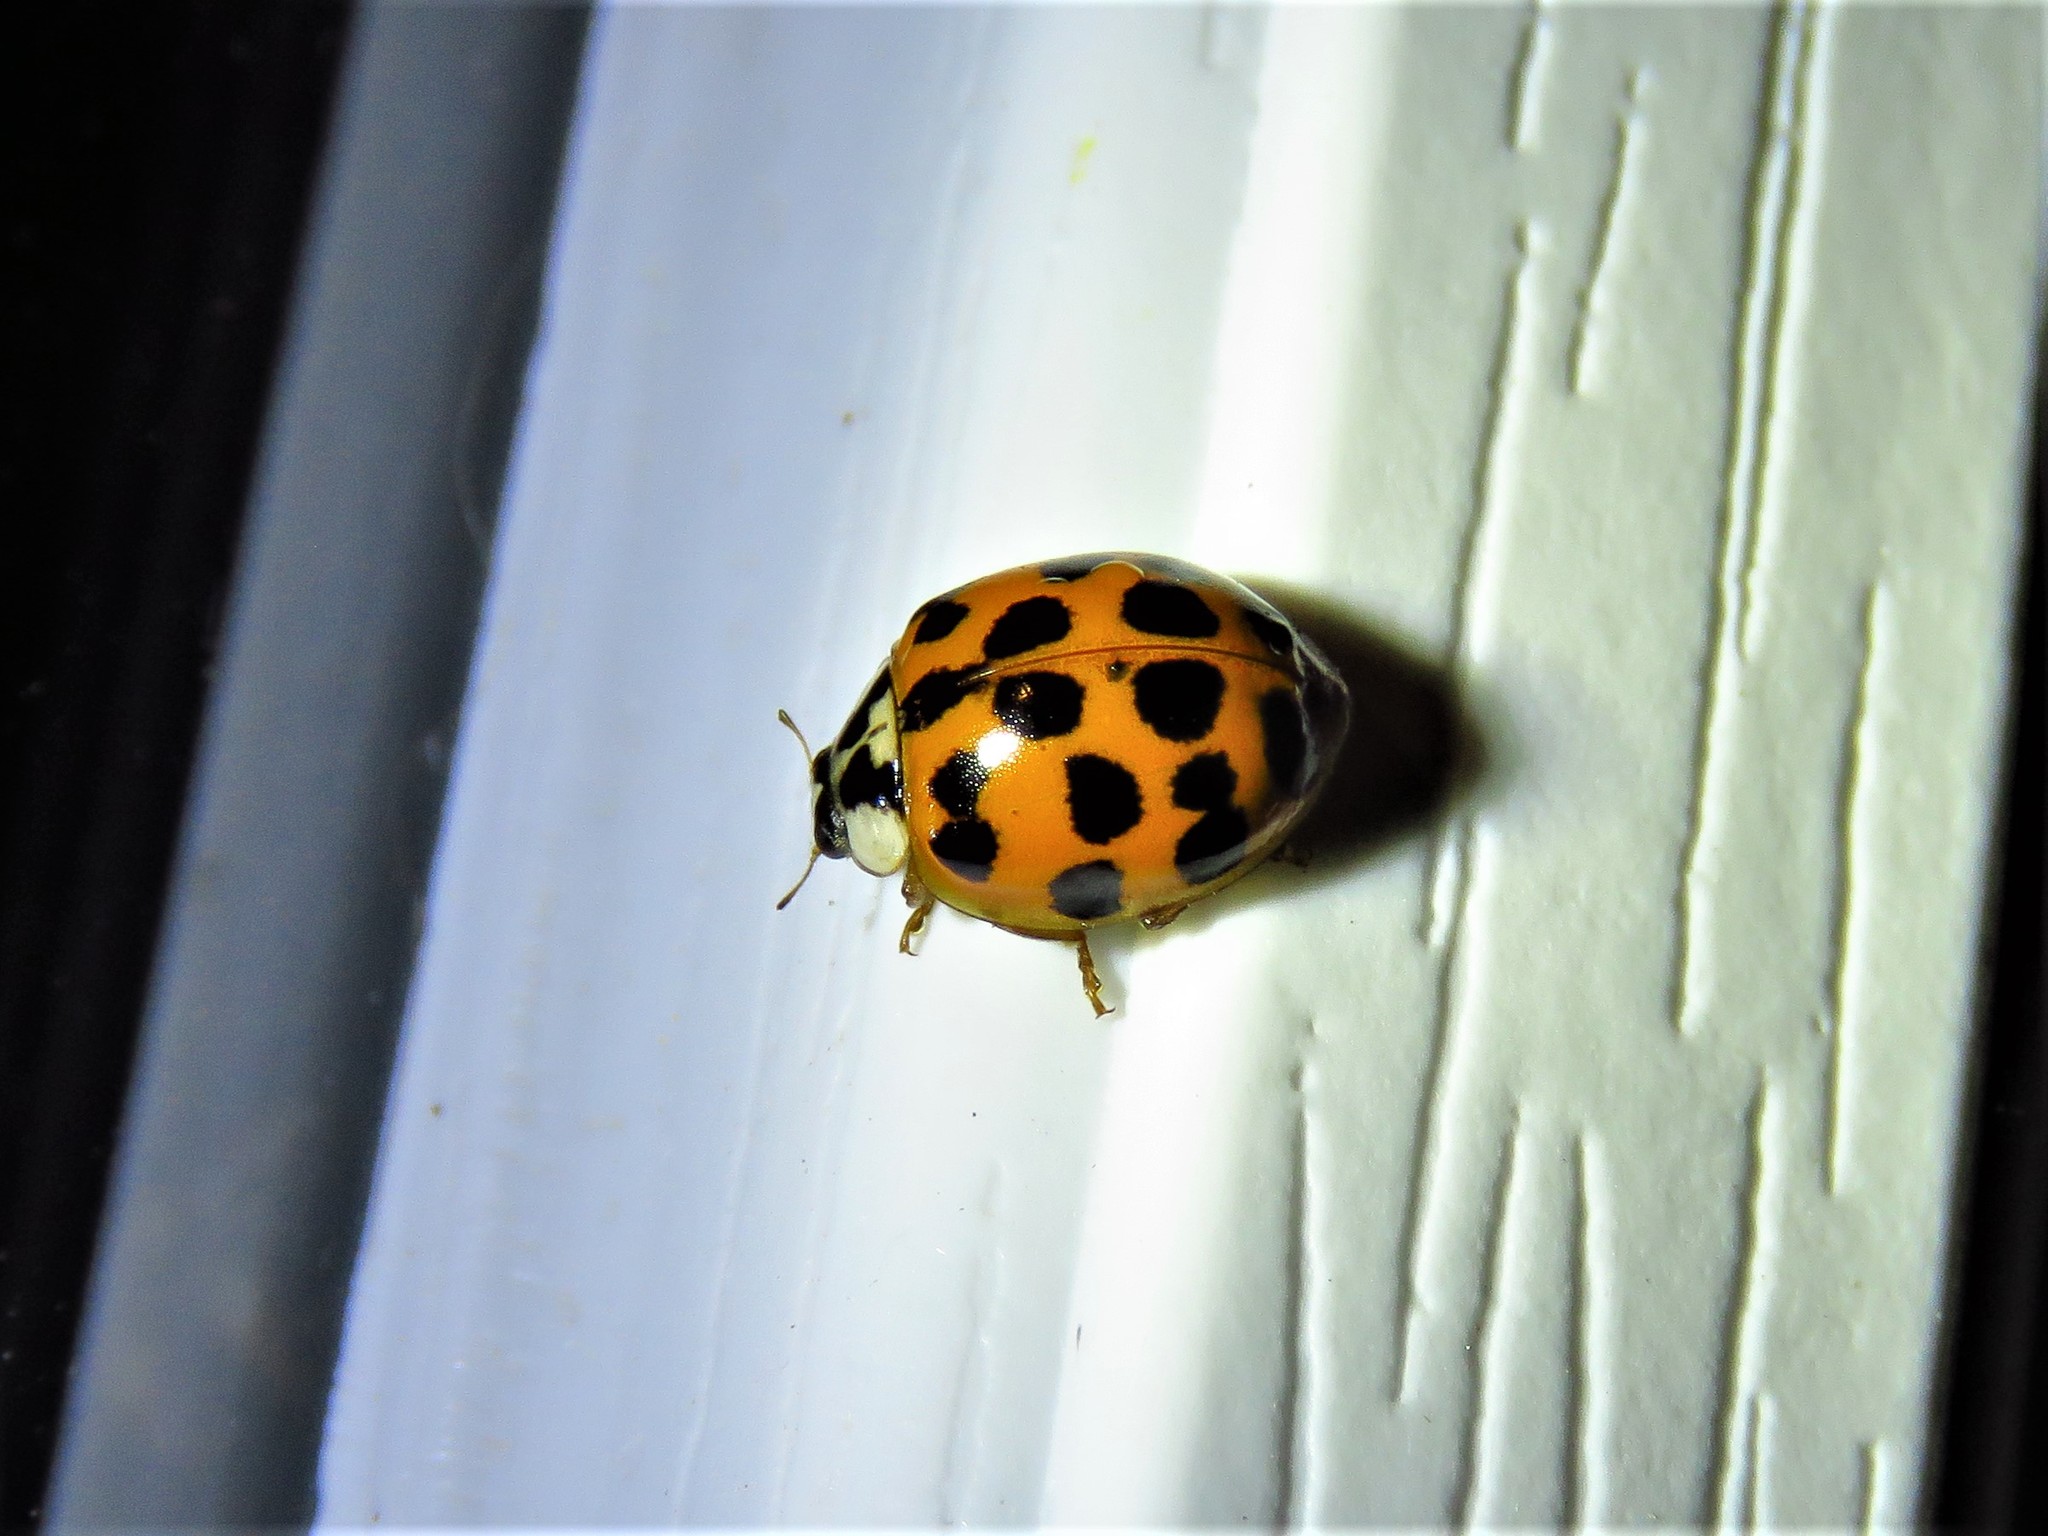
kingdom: Animalia
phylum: Arthropoda
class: Insecta
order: Coleoptera
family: Coccinellidae
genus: Harmonia
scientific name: Harmonia axyridis
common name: Harlequin ladybird
